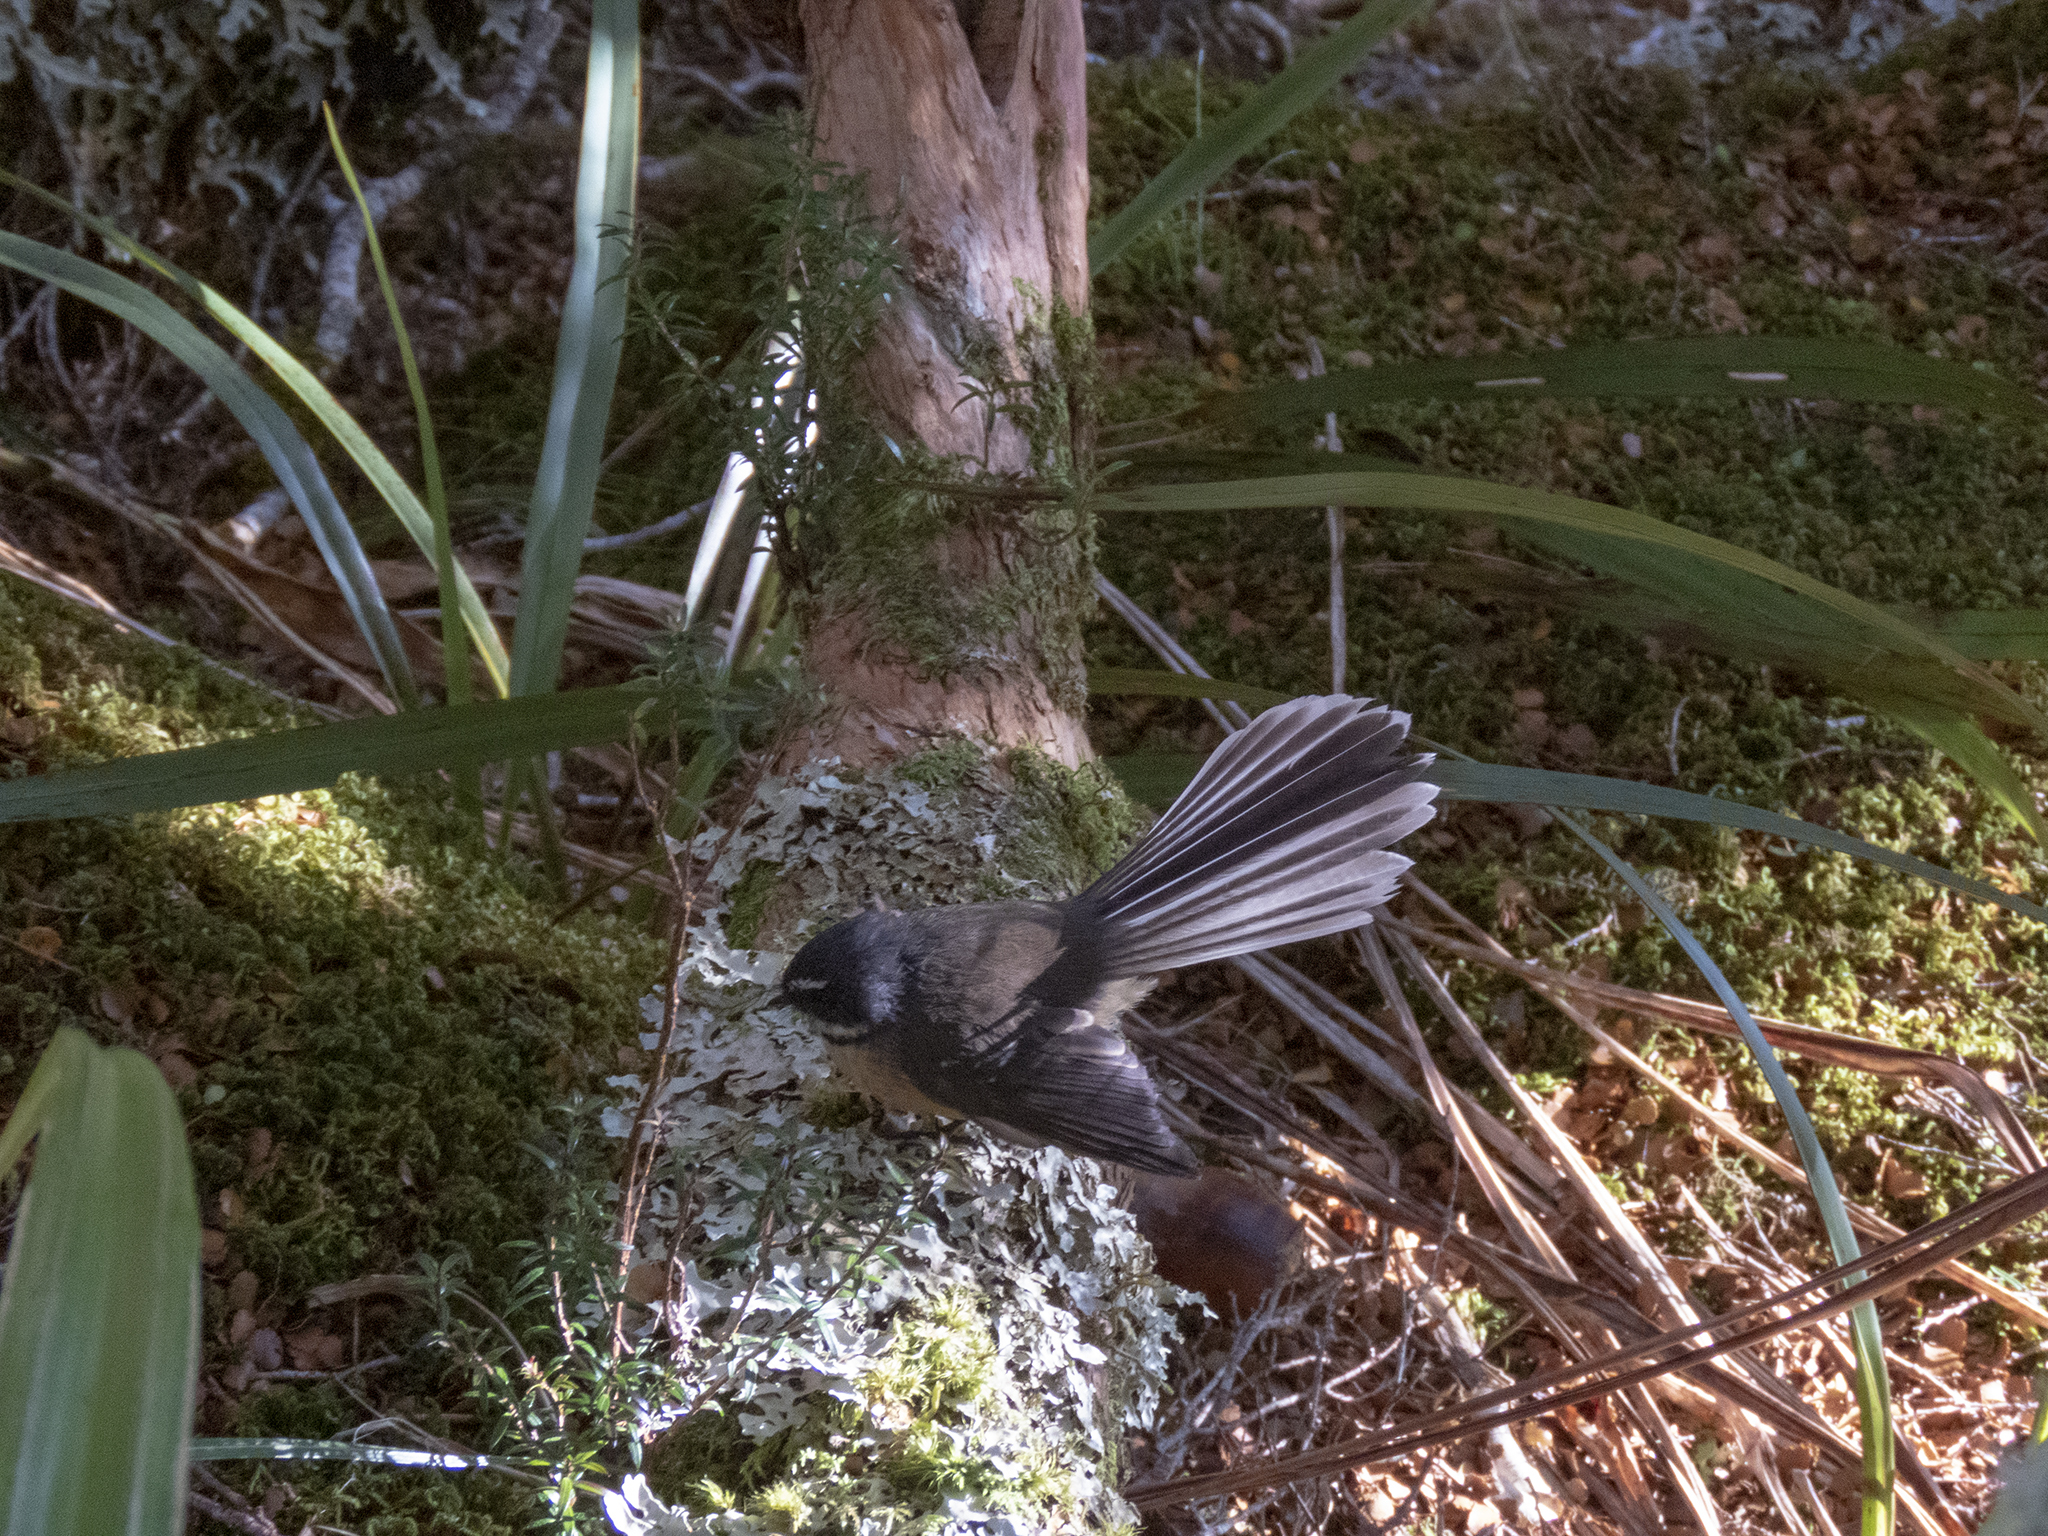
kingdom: Animalia
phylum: Chordata
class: Aves
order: Passeriformes
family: Rhipiduridae
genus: Rhipidura
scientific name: Rhipidura fuliginosa
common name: New zealand fantail
